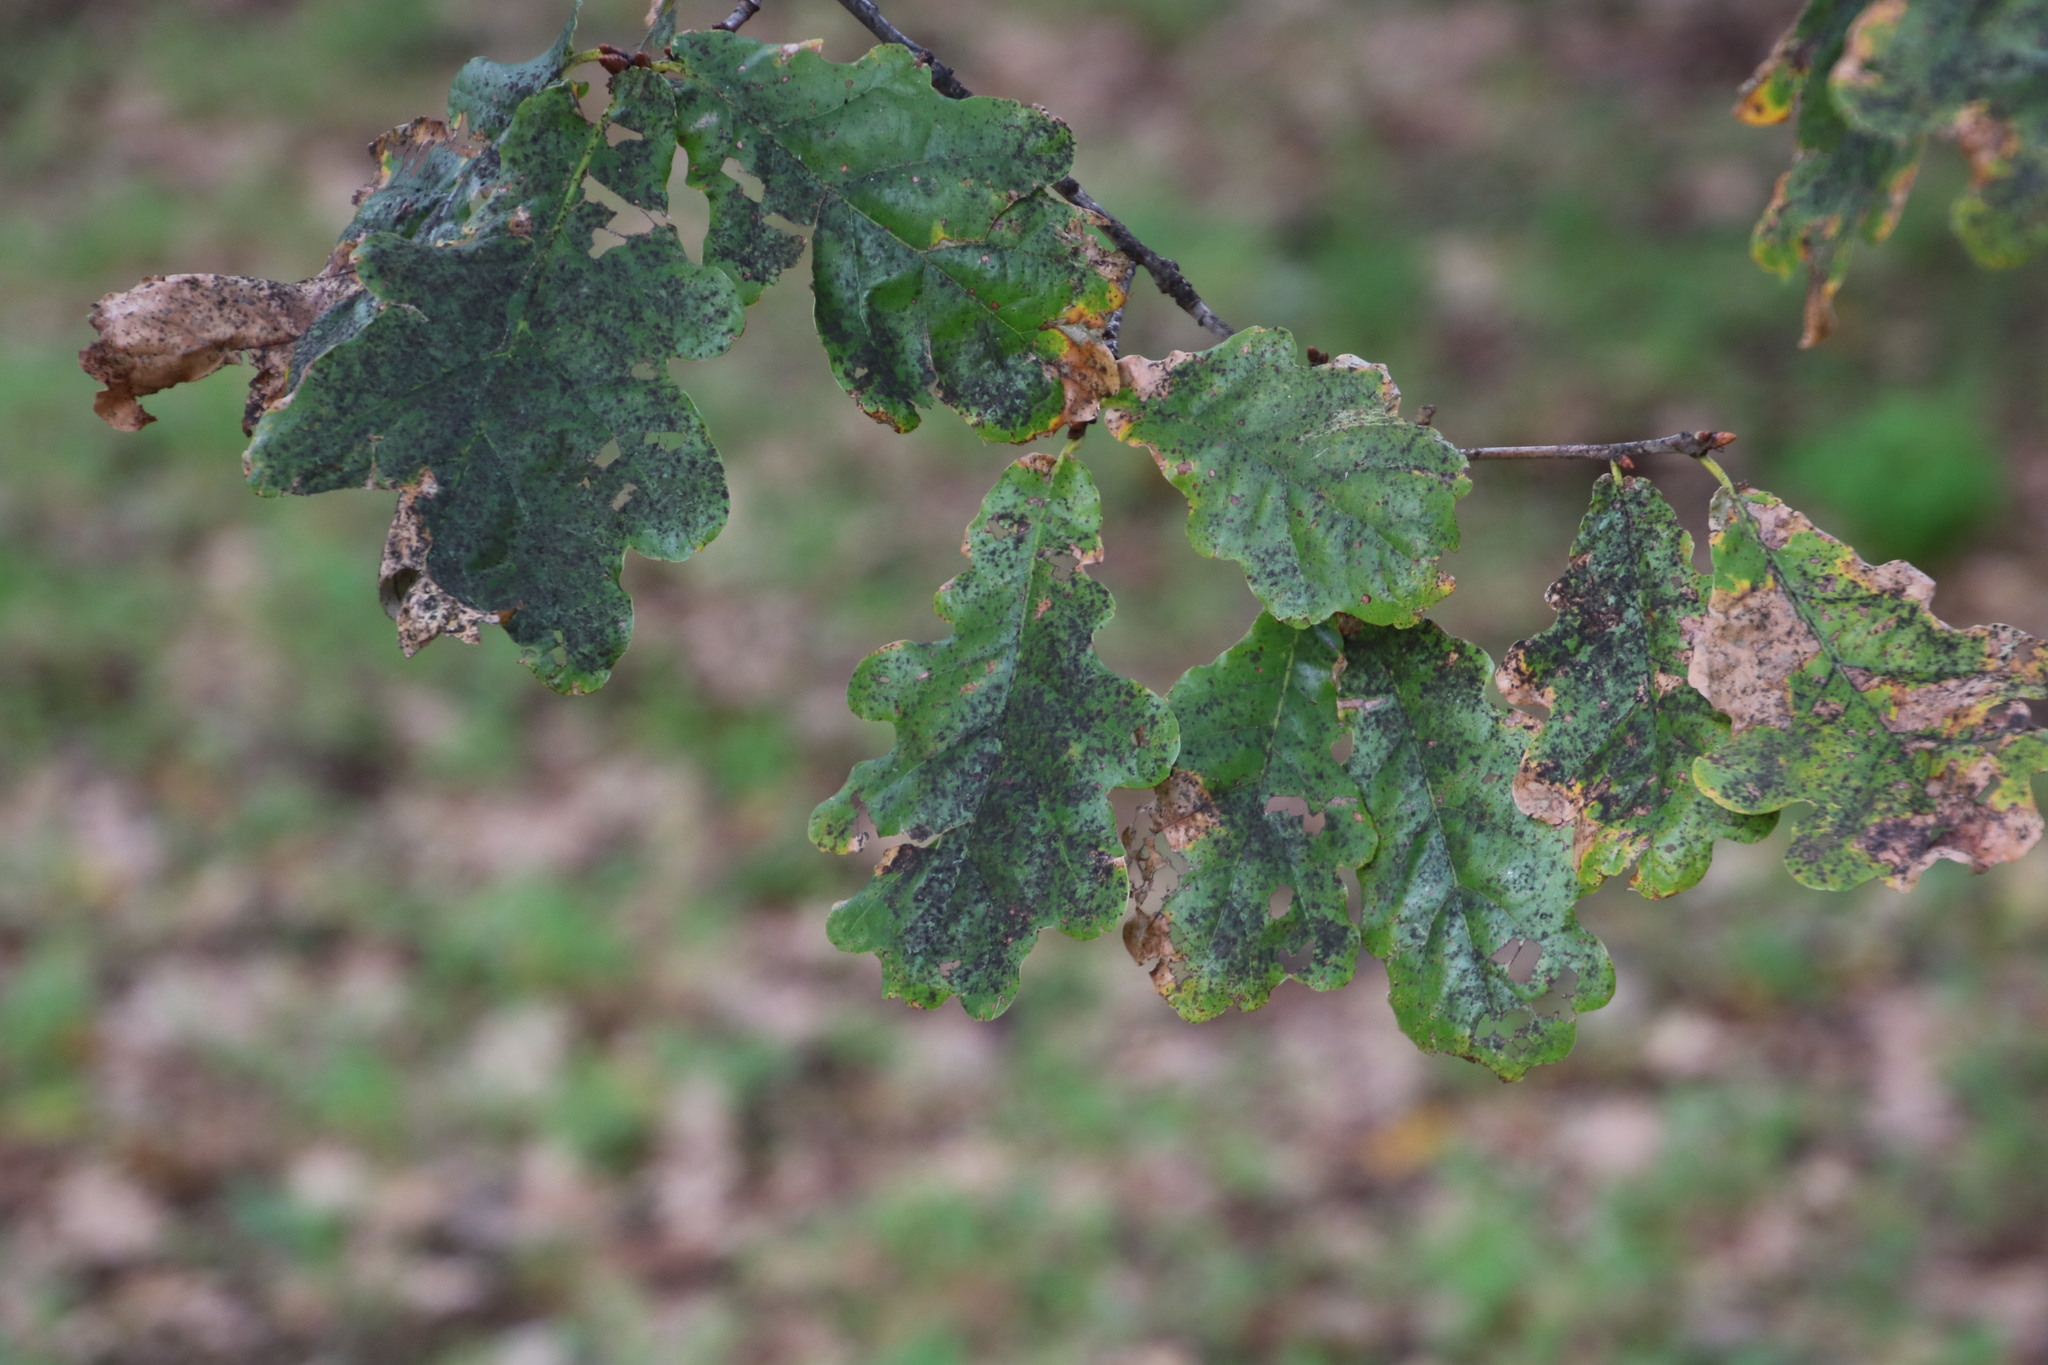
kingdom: Plantae
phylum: Tracheophyta
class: Magnoliopsida
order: Fagales
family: Fagaceae
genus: Quercus
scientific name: Quercus robur
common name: Pedunculate oak
